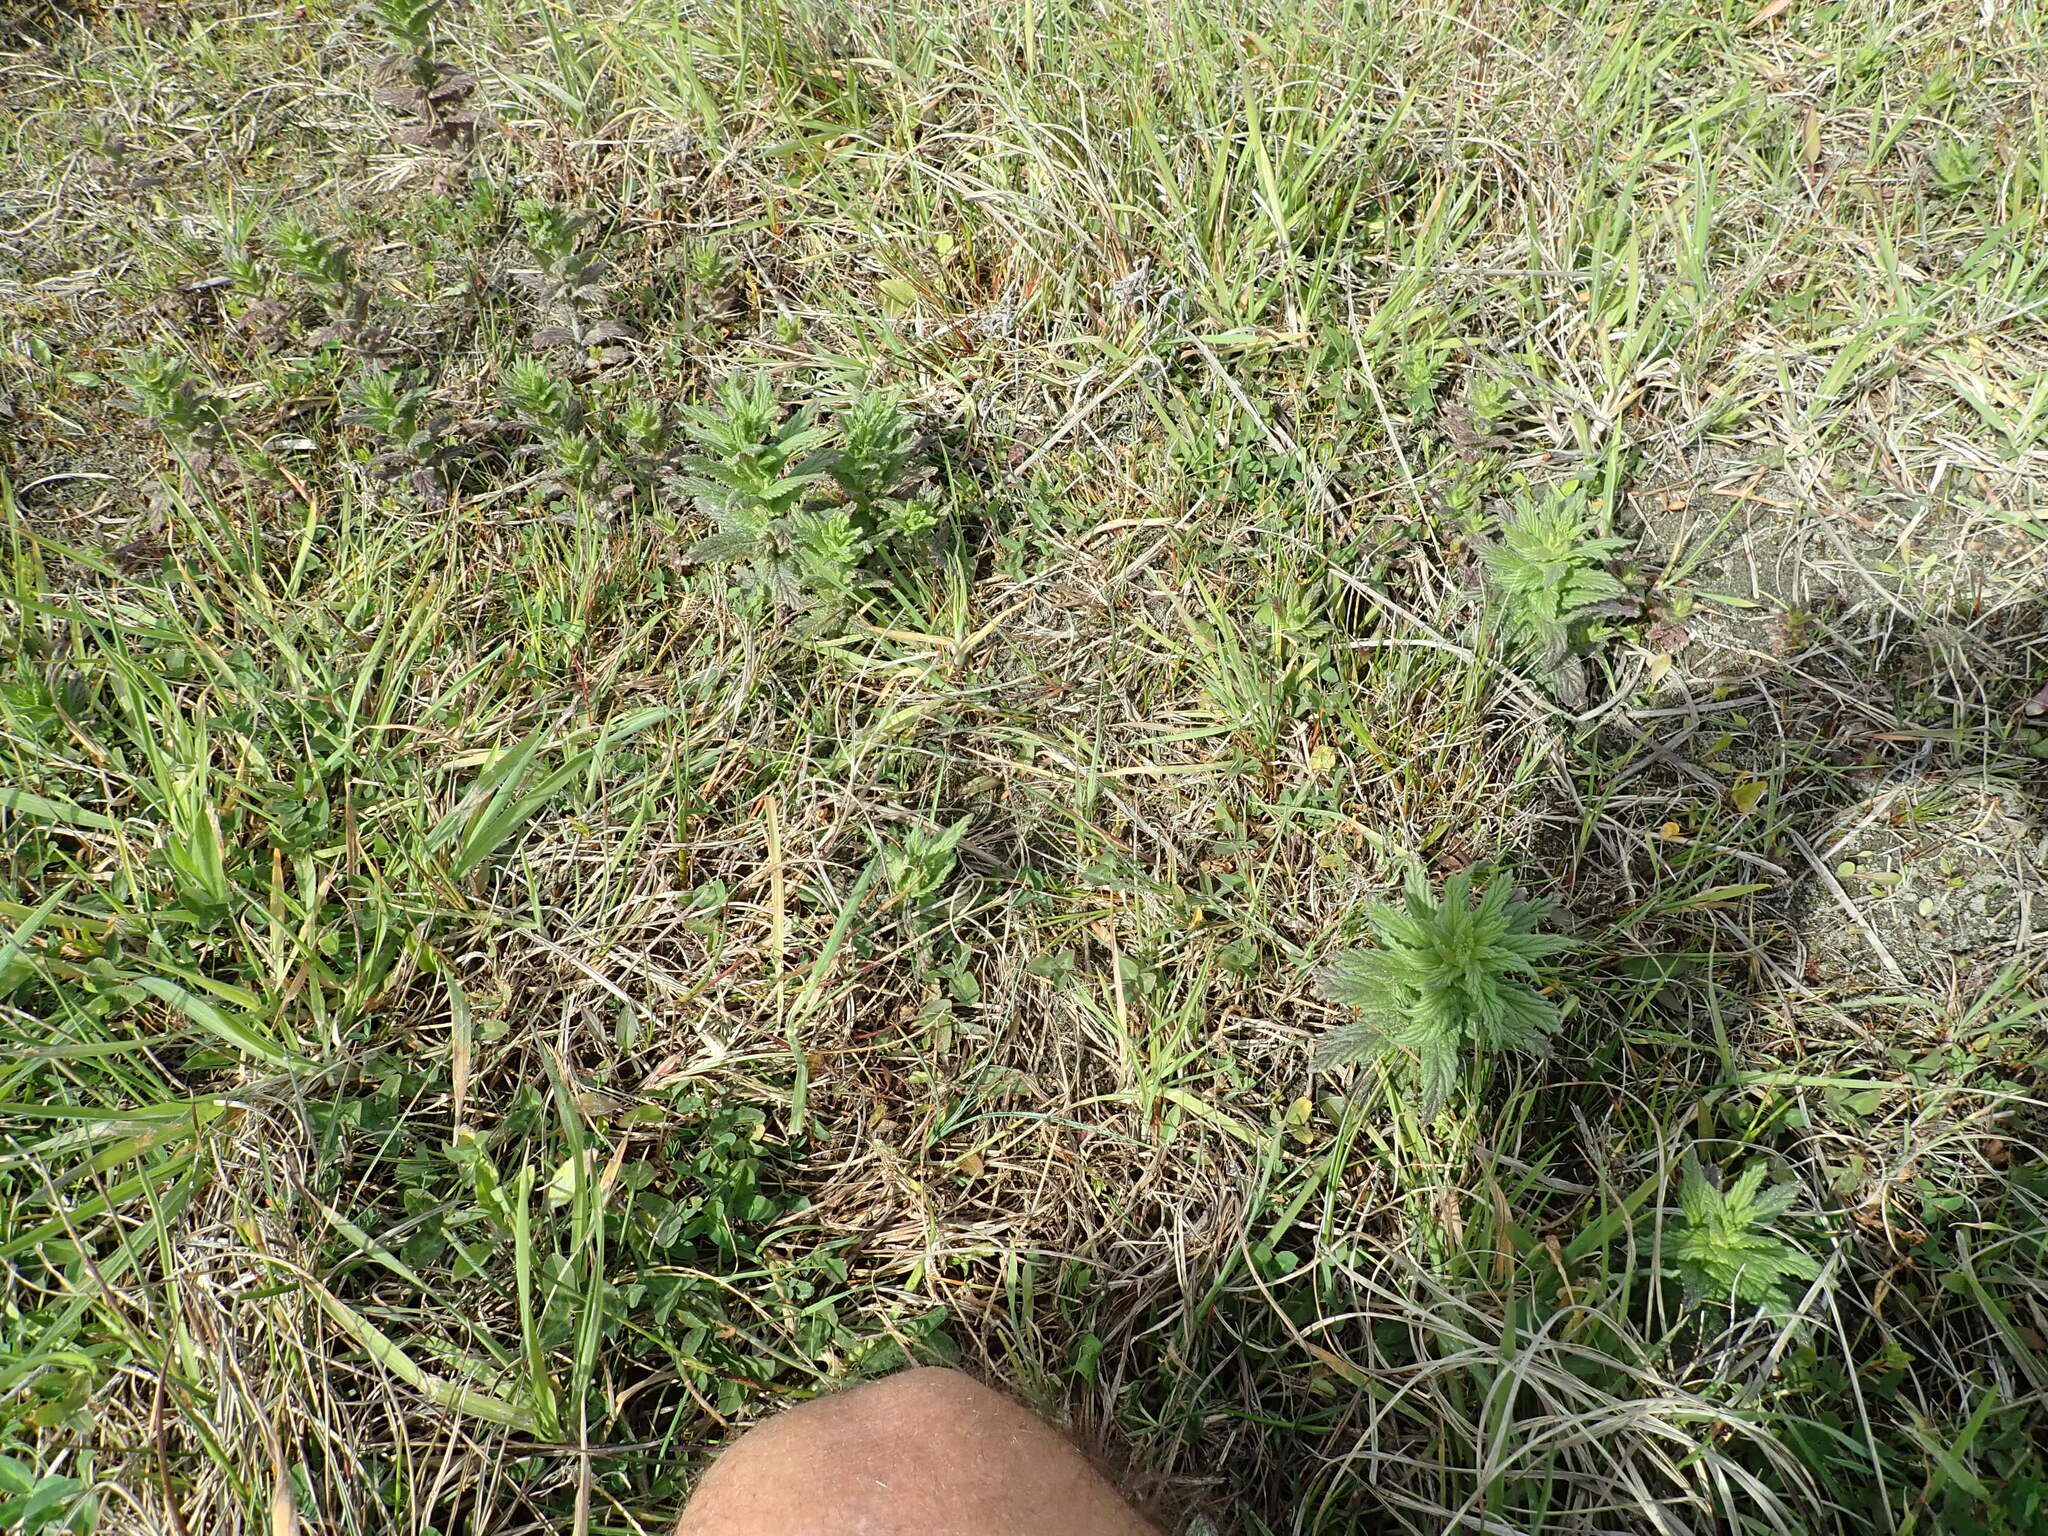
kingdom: Plantae
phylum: Tracheophyta
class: Magnoliopsida
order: Lamiales
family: Orobanchaceae
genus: Bellardia
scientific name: Bellardia viscosa
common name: Sticky parentucellia
